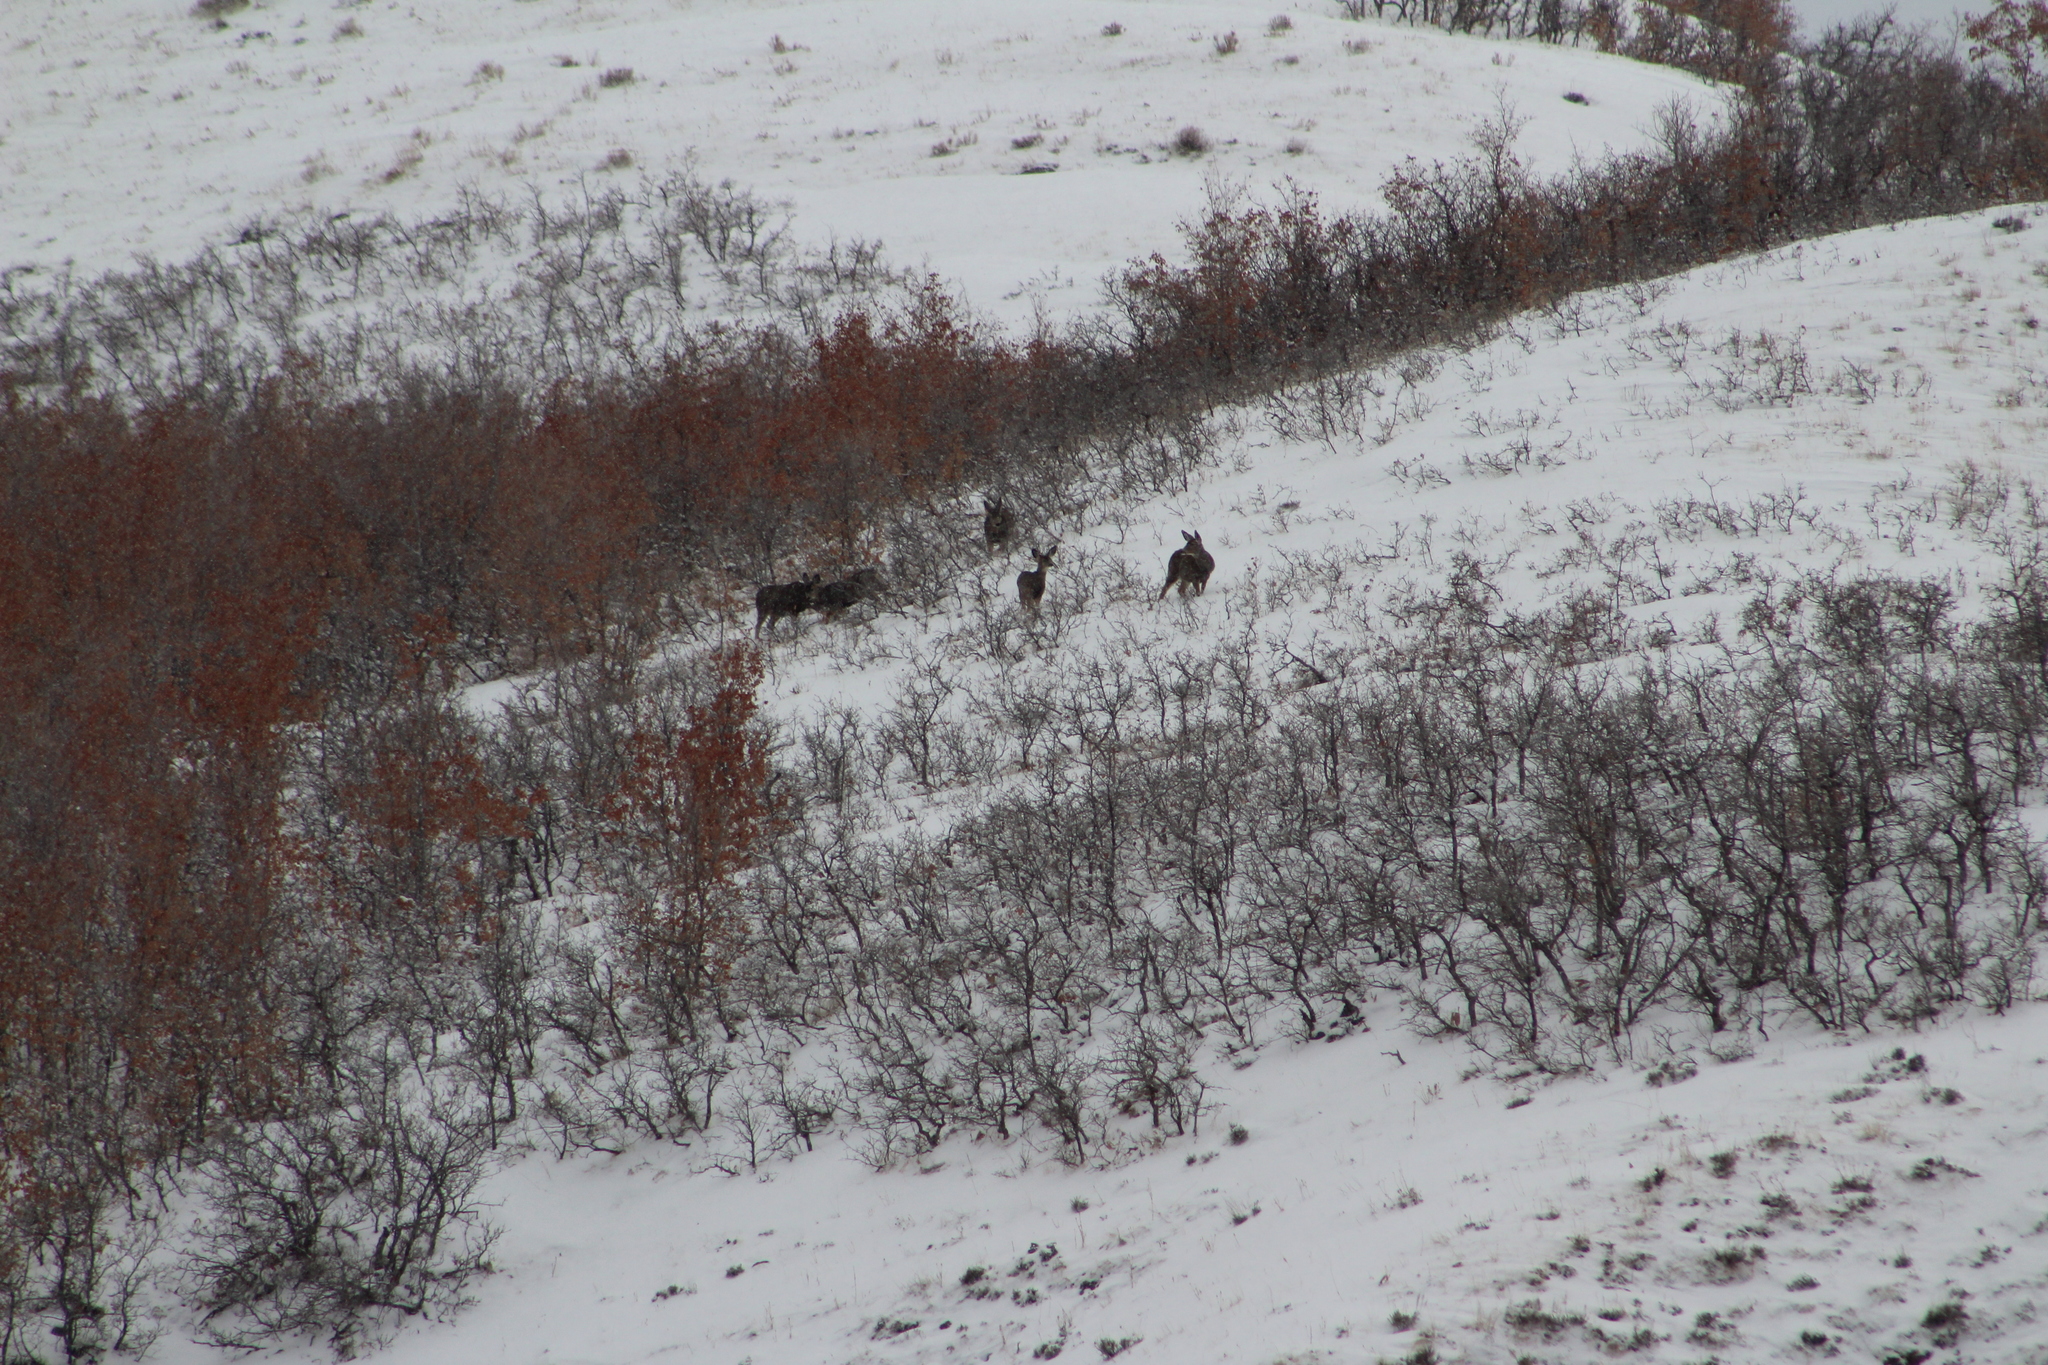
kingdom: Animalia
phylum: Chordata
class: Mammalia
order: Artiodactyla
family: Cervidae
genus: Odocoileus
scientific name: Odocoileus hemionus
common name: Mule deer
